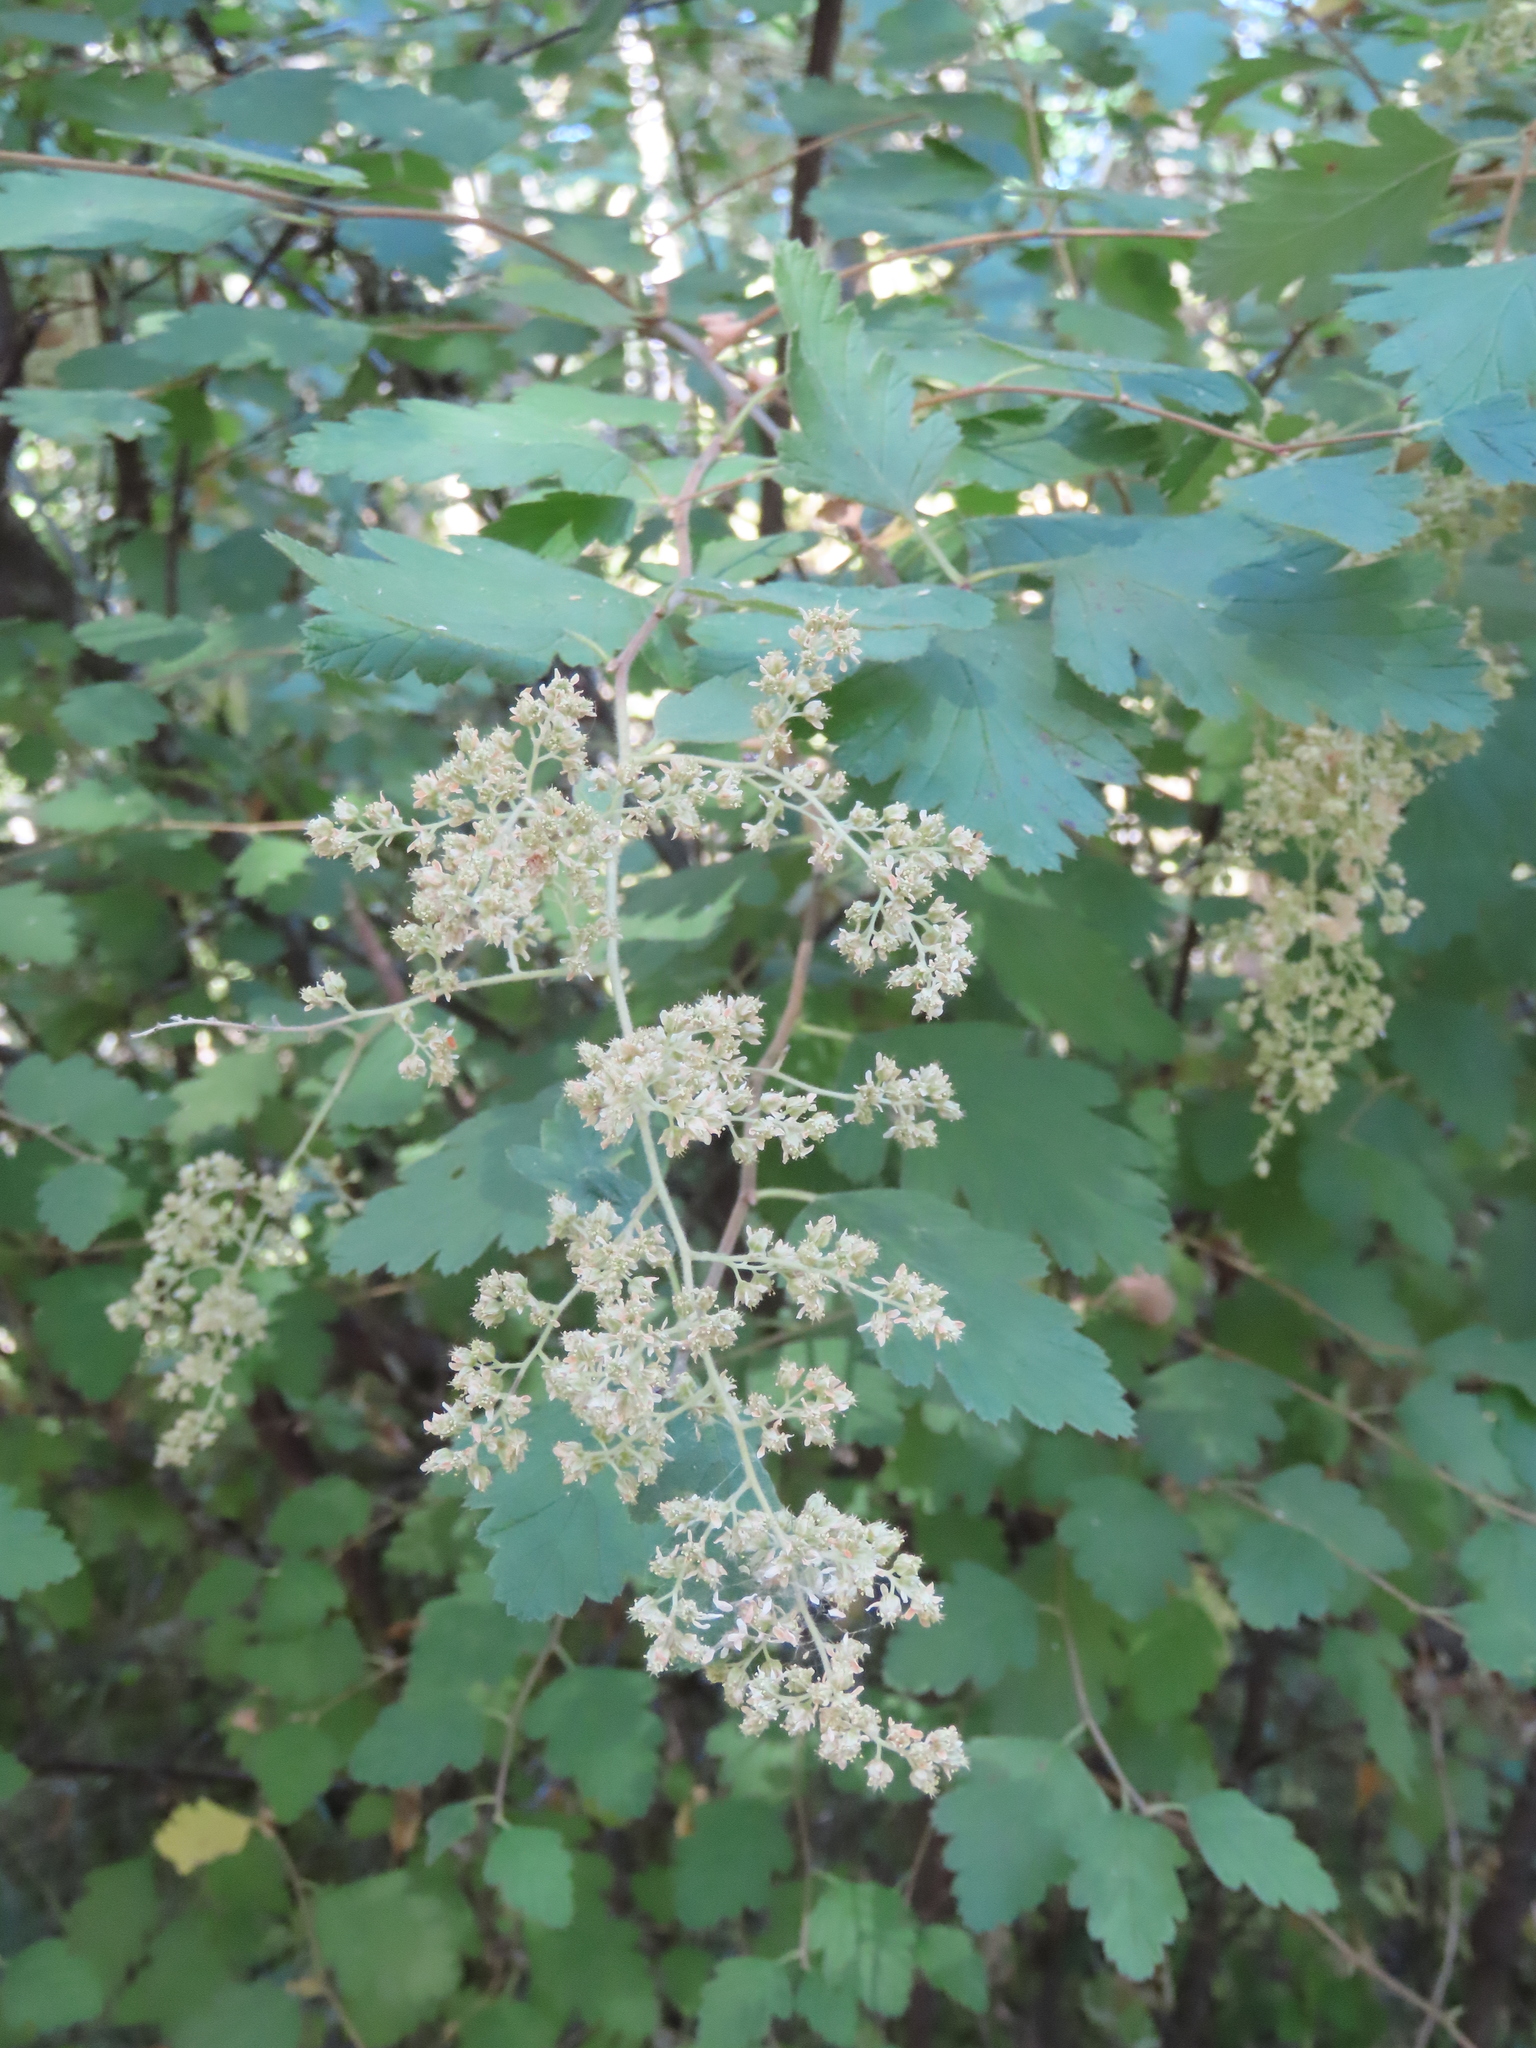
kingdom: Plantae
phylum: Tracheophyta
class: Magnoliopsida
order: Rosales
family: Rosaceae
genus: Holodiscus
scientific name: Holodiscus discolor
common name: Oceanspray
